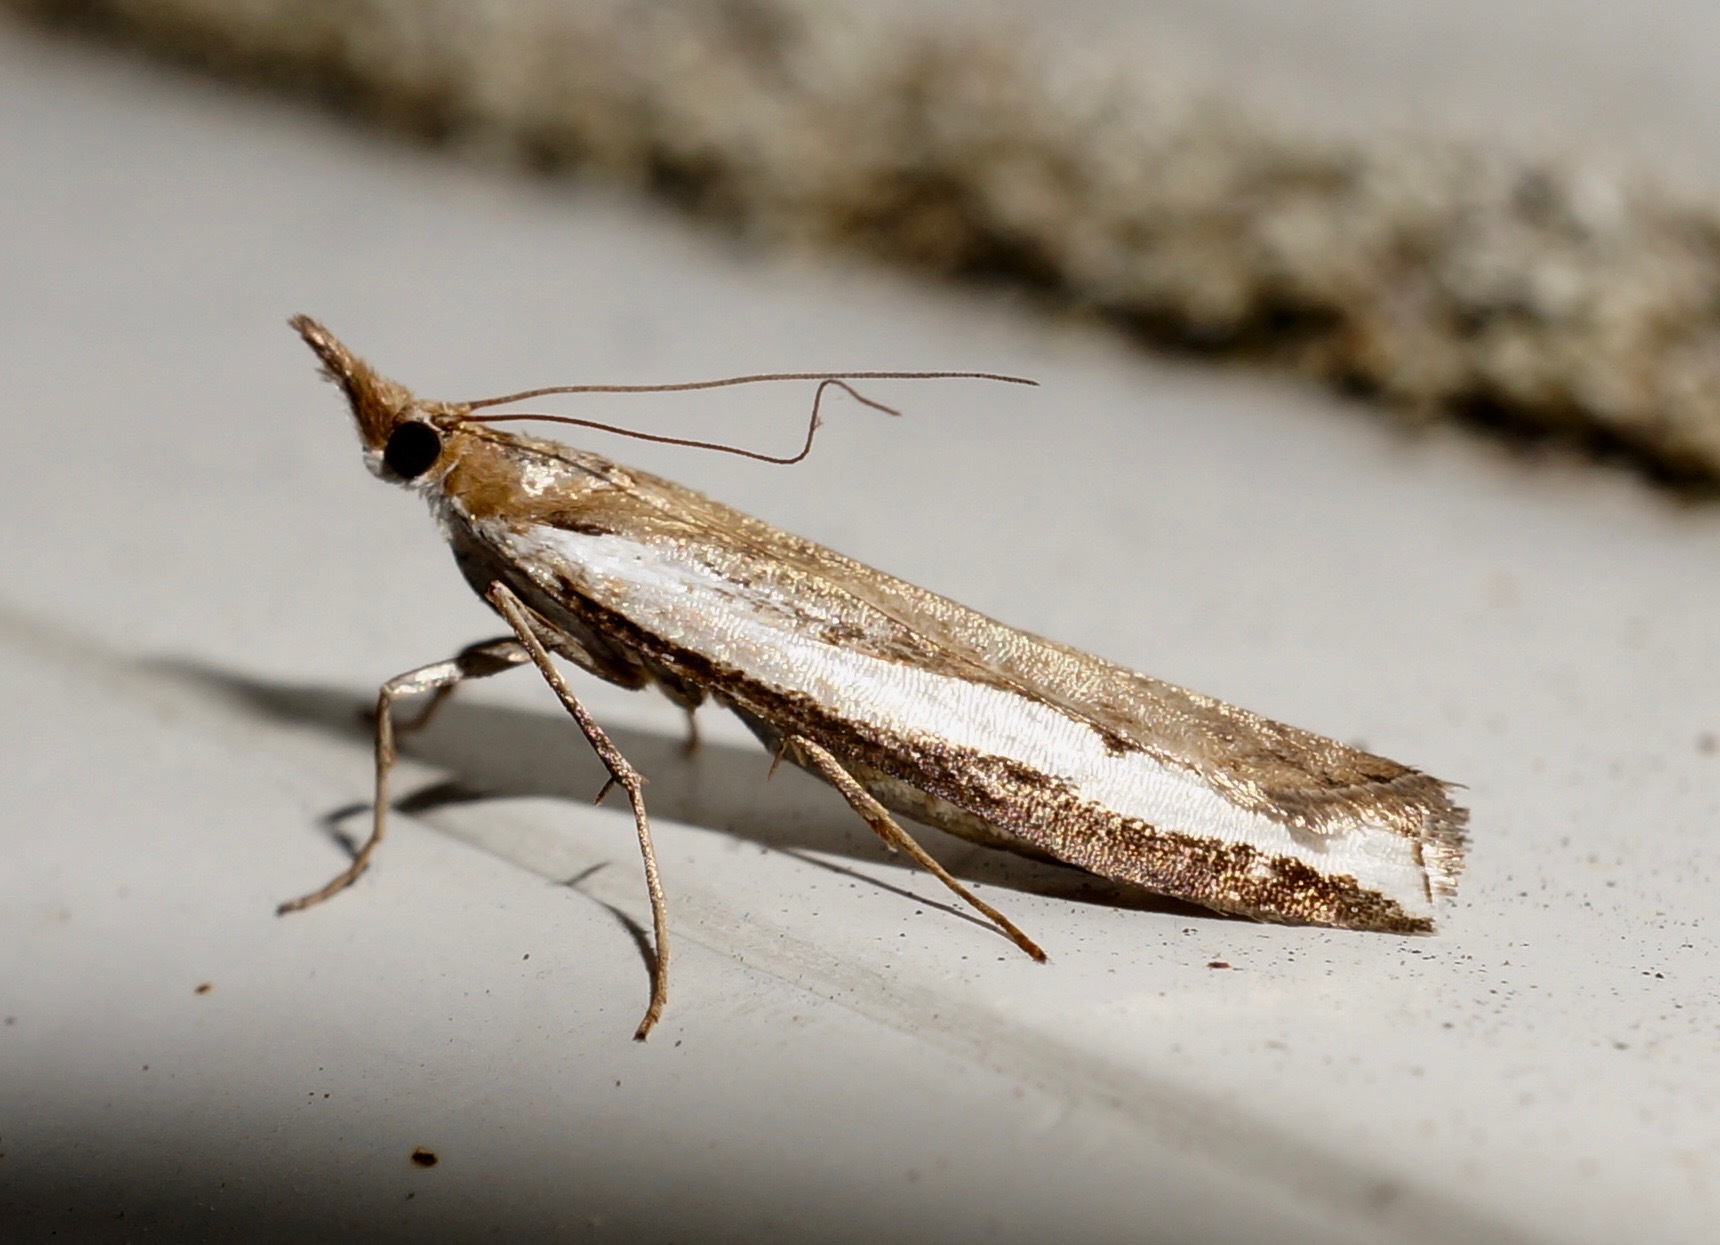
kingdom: Animalia
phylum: Arthropoda
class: Insecta
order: Lepidoptera
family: Crambidae
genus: Orocrambus
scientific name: Orocrambus flexuosellus
